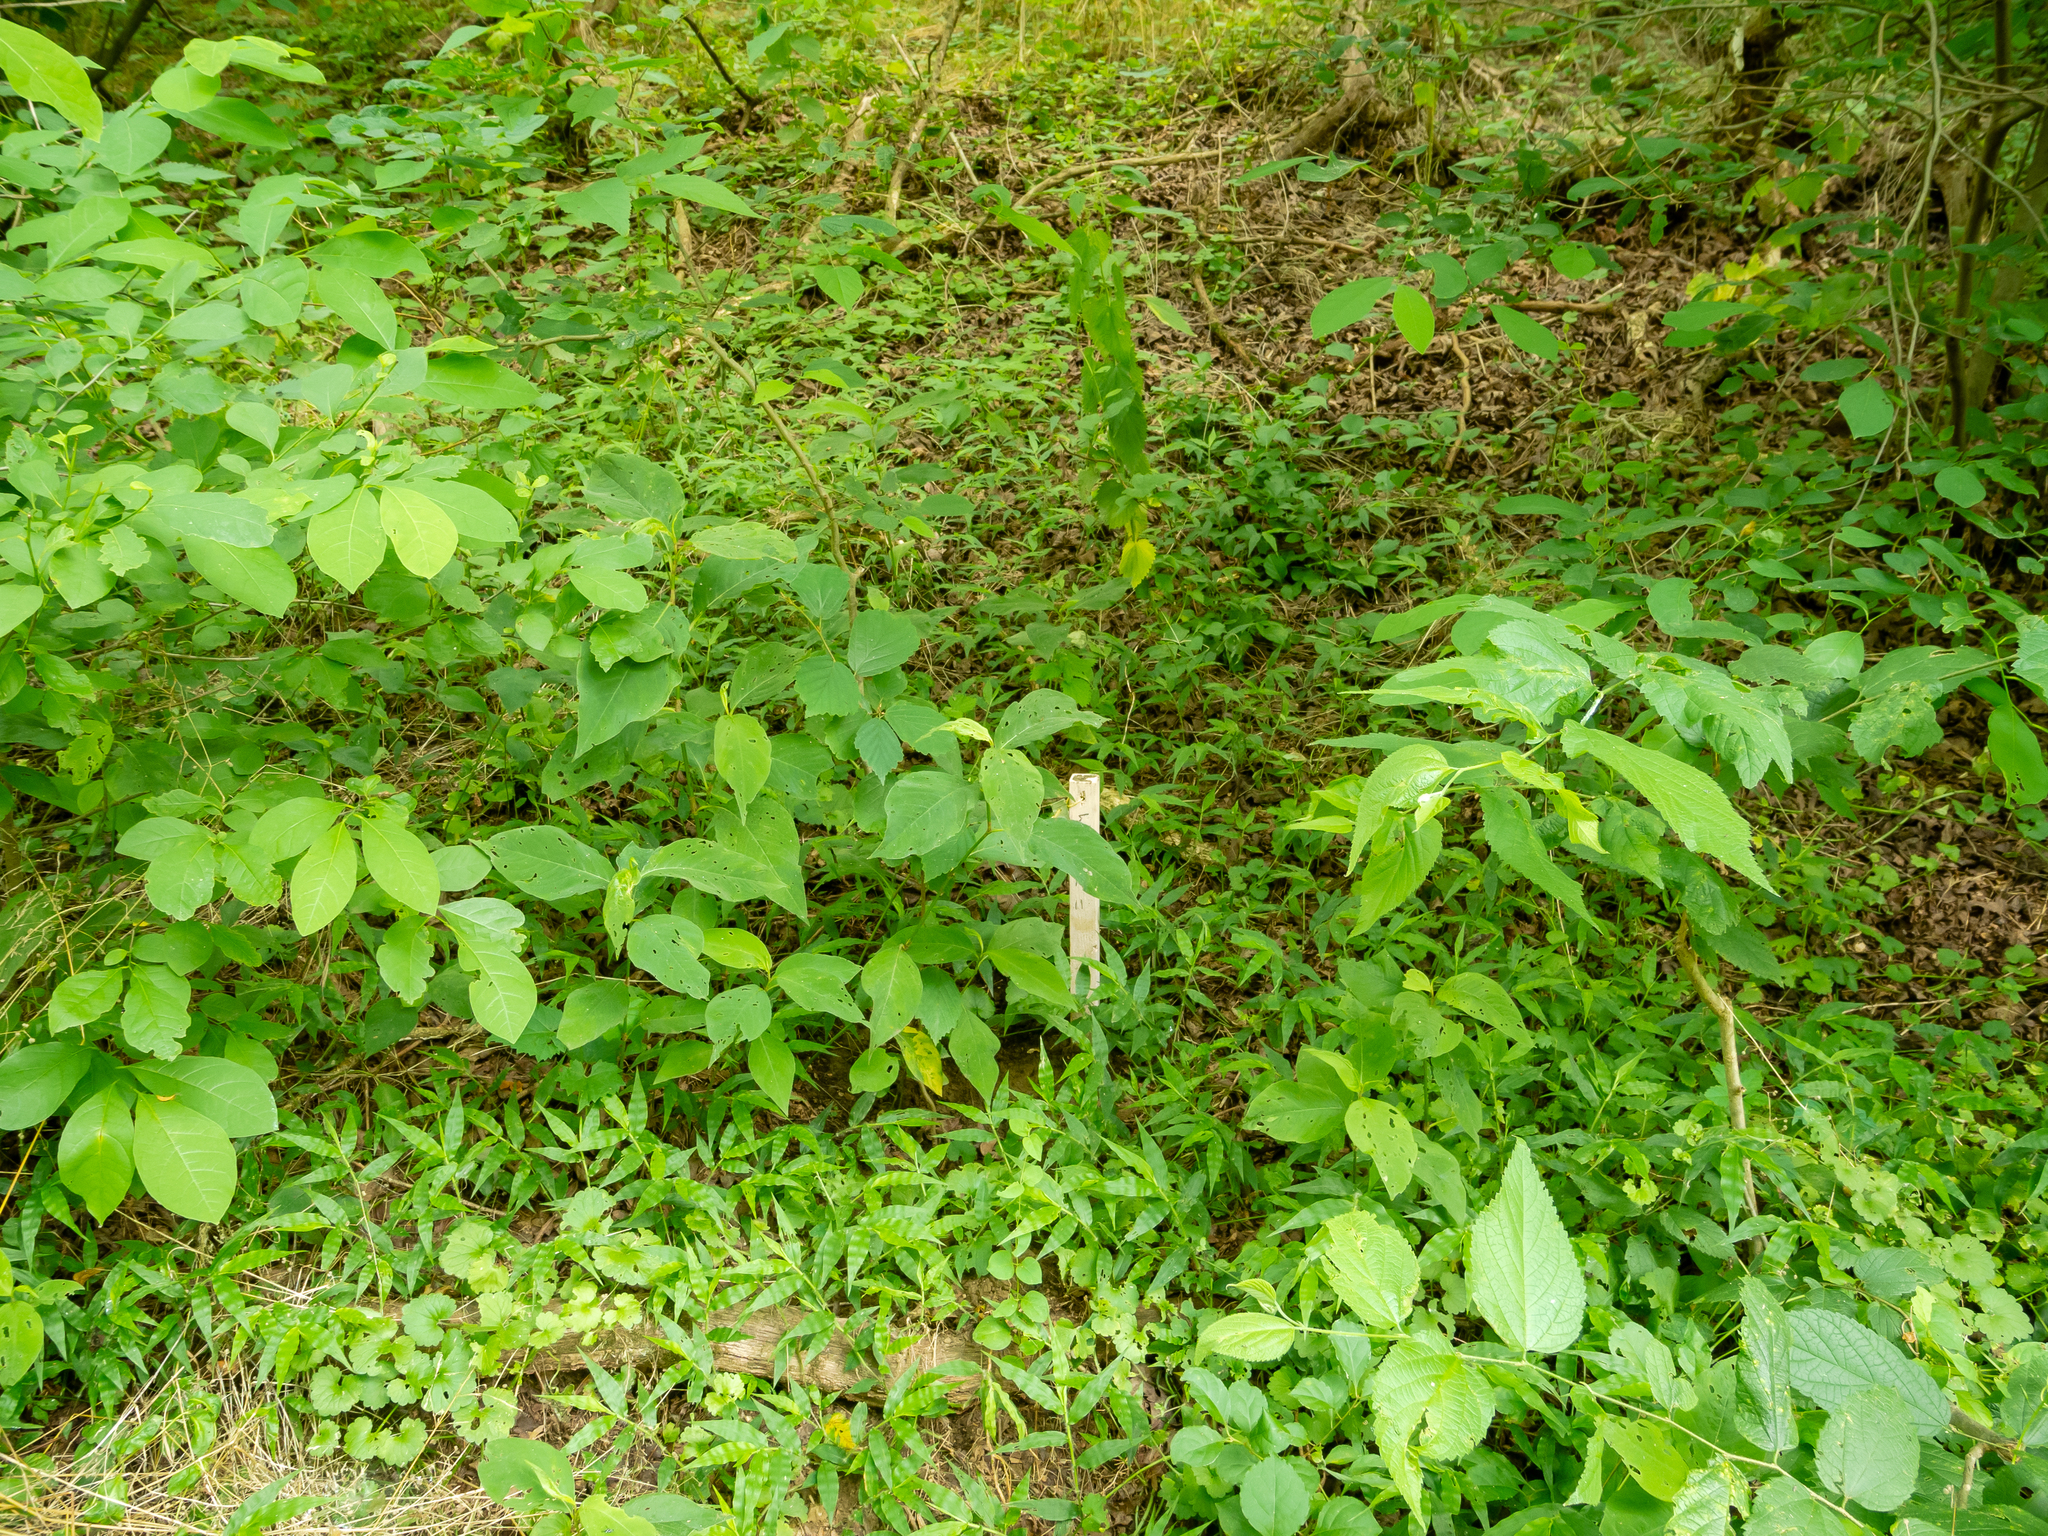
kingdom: Plantae
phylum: Tracheophyta
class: Liliopsida
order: Poales
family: Poaceae
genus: Oplismenus
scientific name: Oplismenus undulatifolius
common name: Wavyleaf basketgrass
